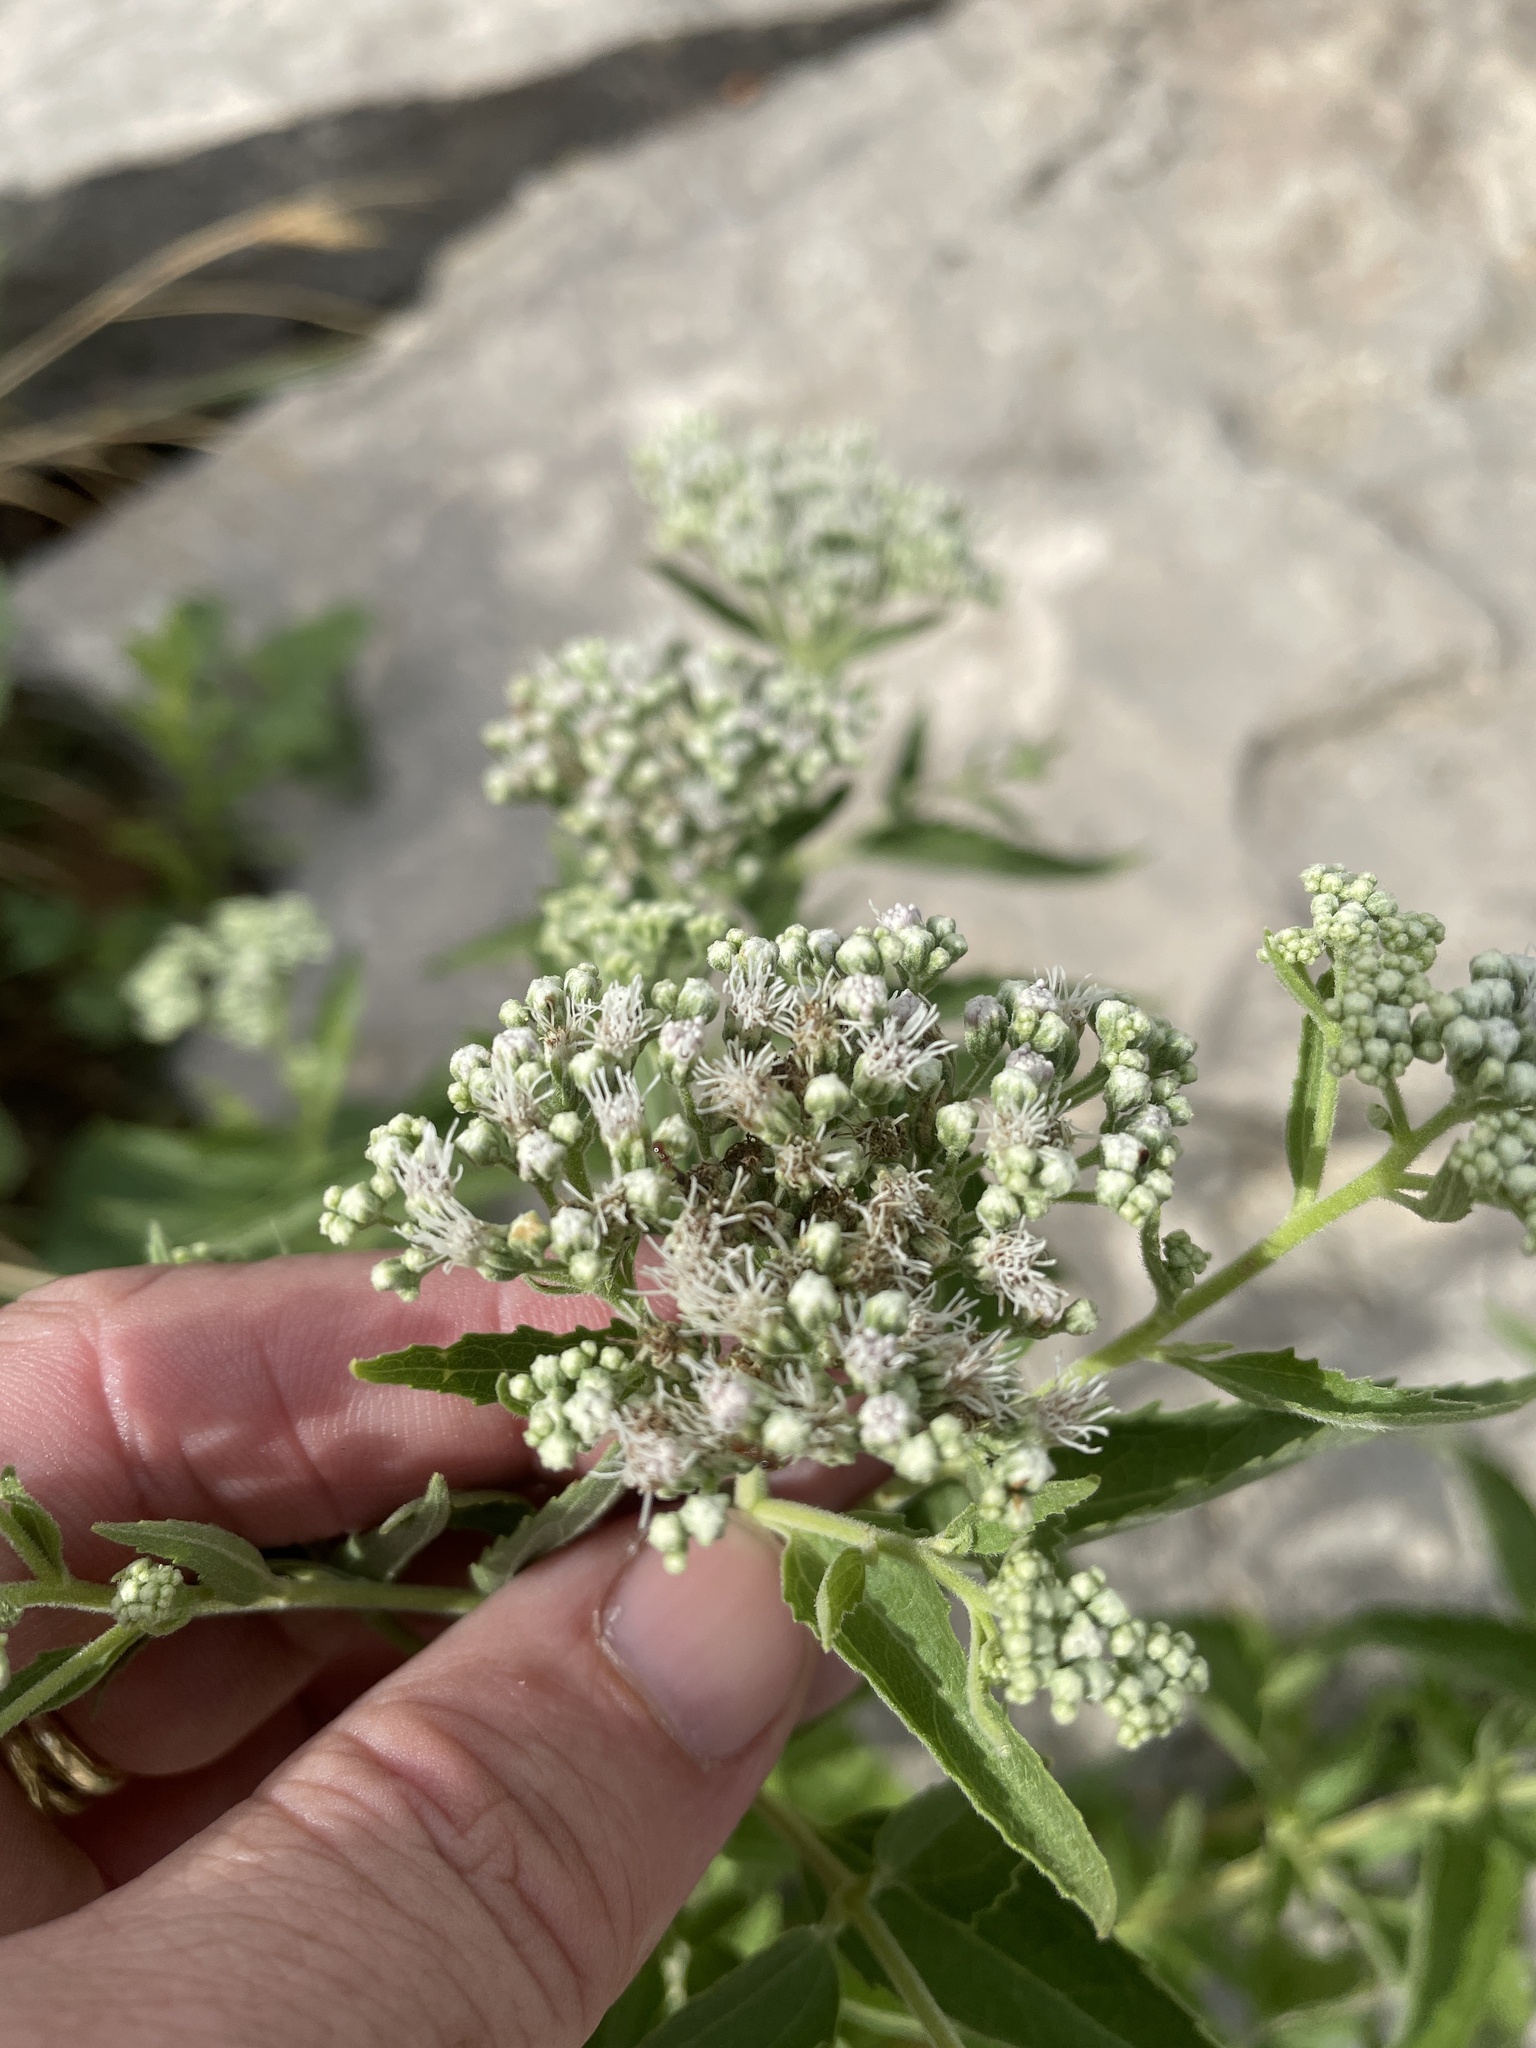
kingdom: Plantae
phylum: Tracheophyta
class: Magnoliopsida
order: Asterales
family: Asteraceae
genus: Eupatorium
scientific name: Eupatorium serotinum
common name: Late boneset
